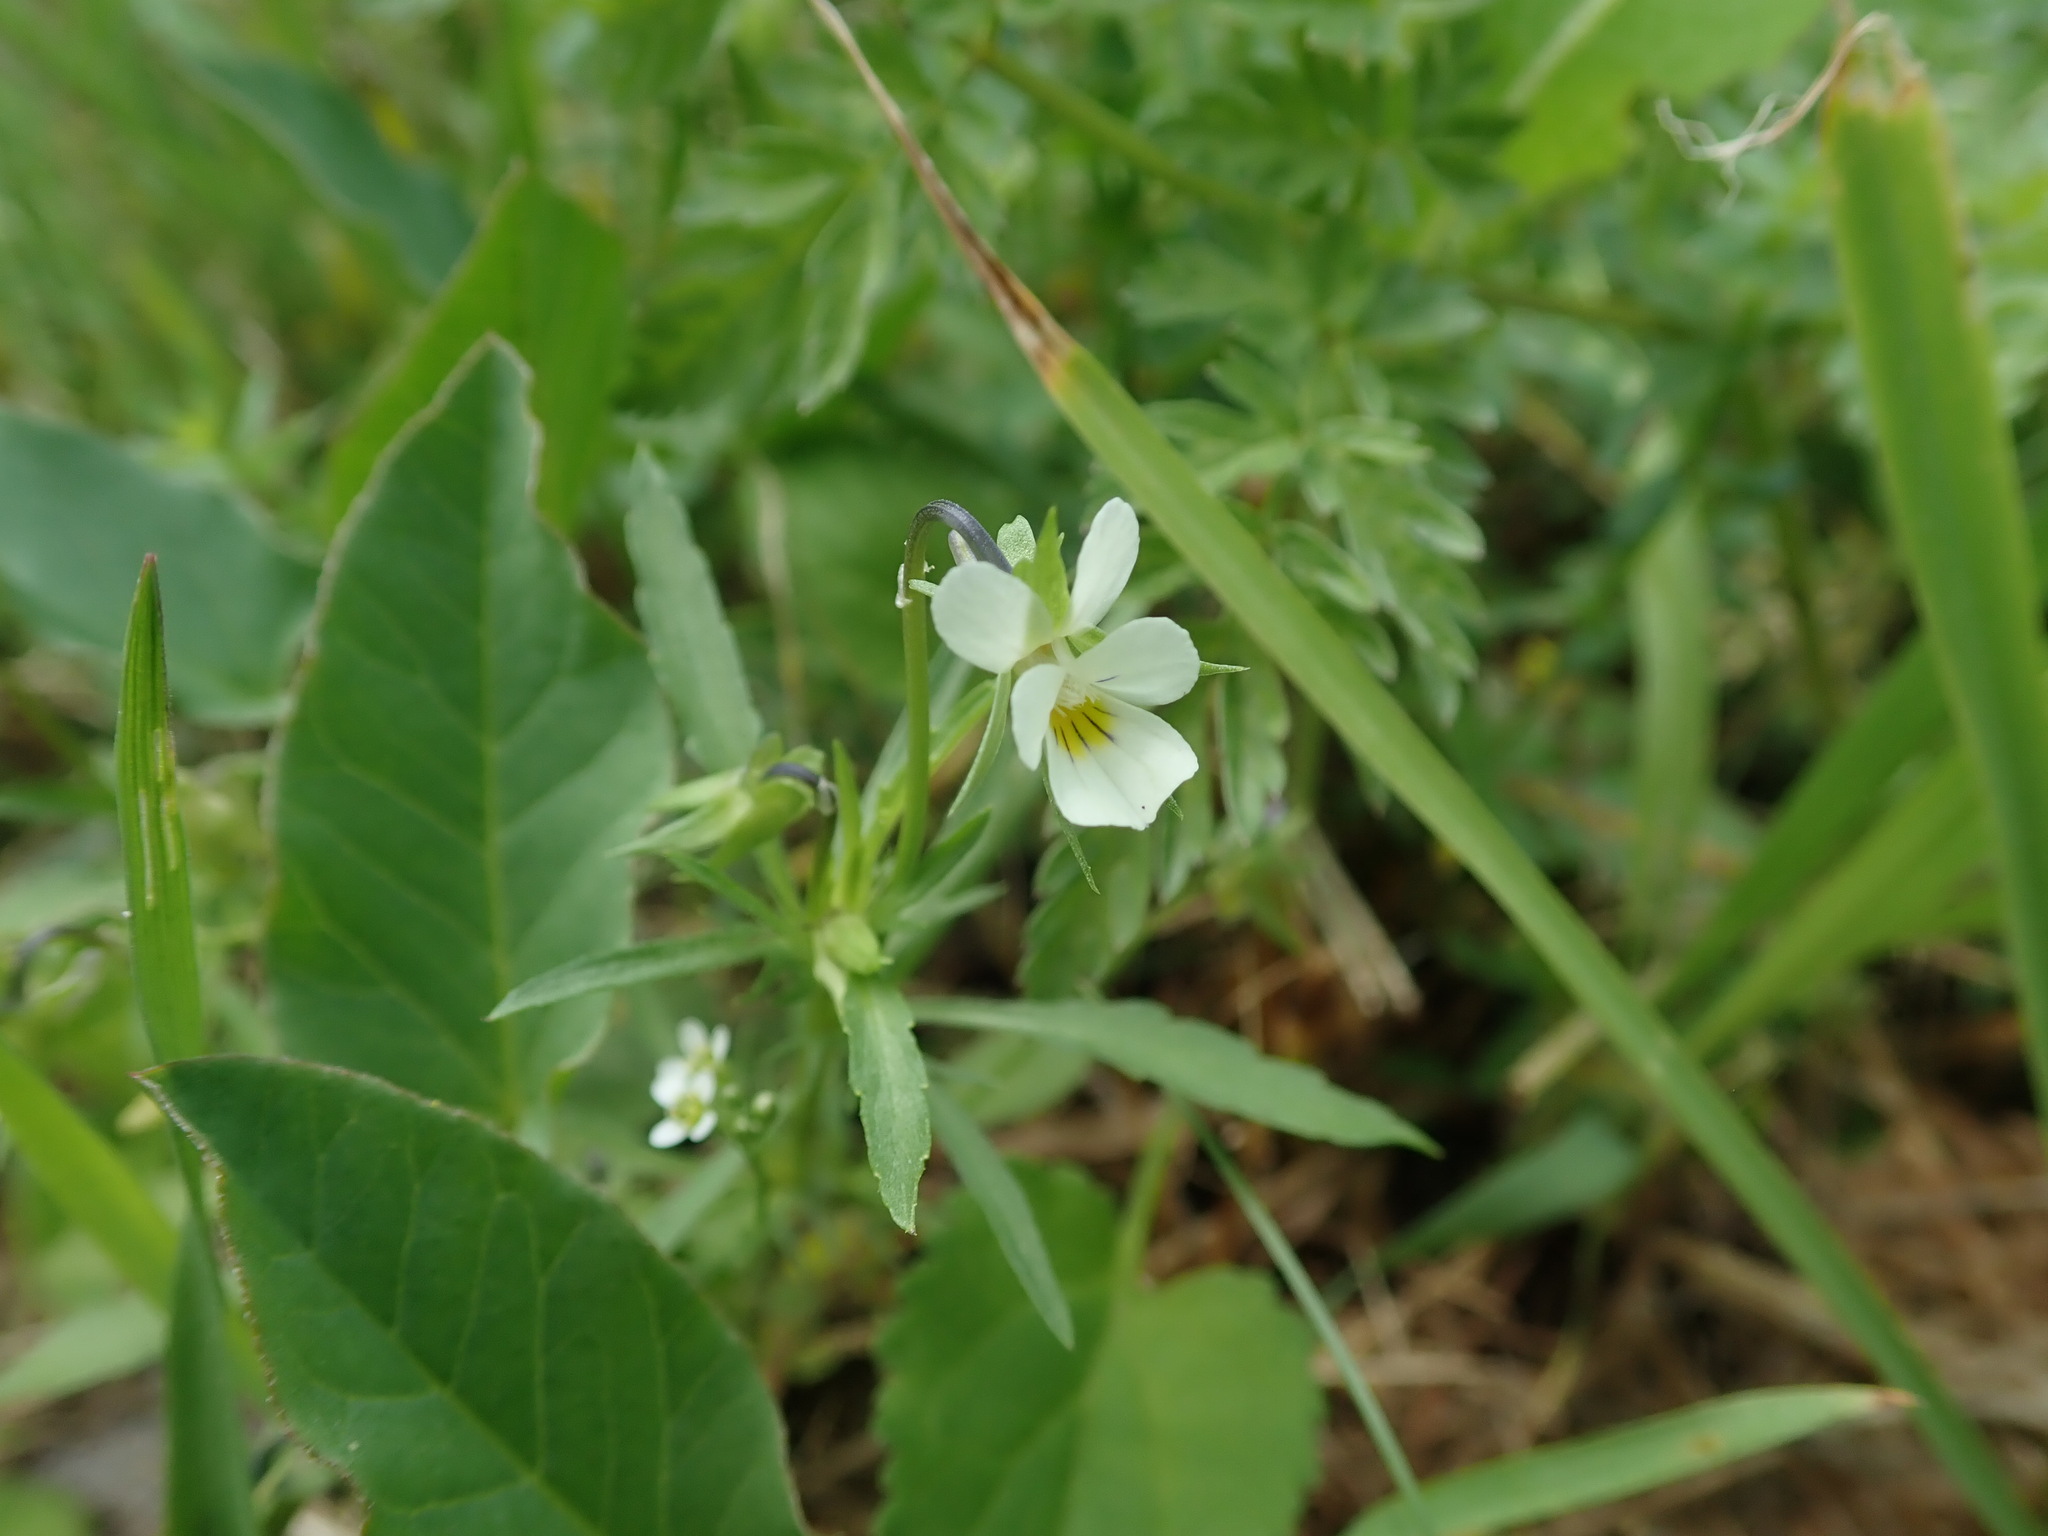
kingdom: Plantae
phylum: Tracheophyta
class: Magnoliopsida
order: Malpighiales
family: Violaceae
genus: Viola
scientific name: Viola arvensis
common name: Field pansy
